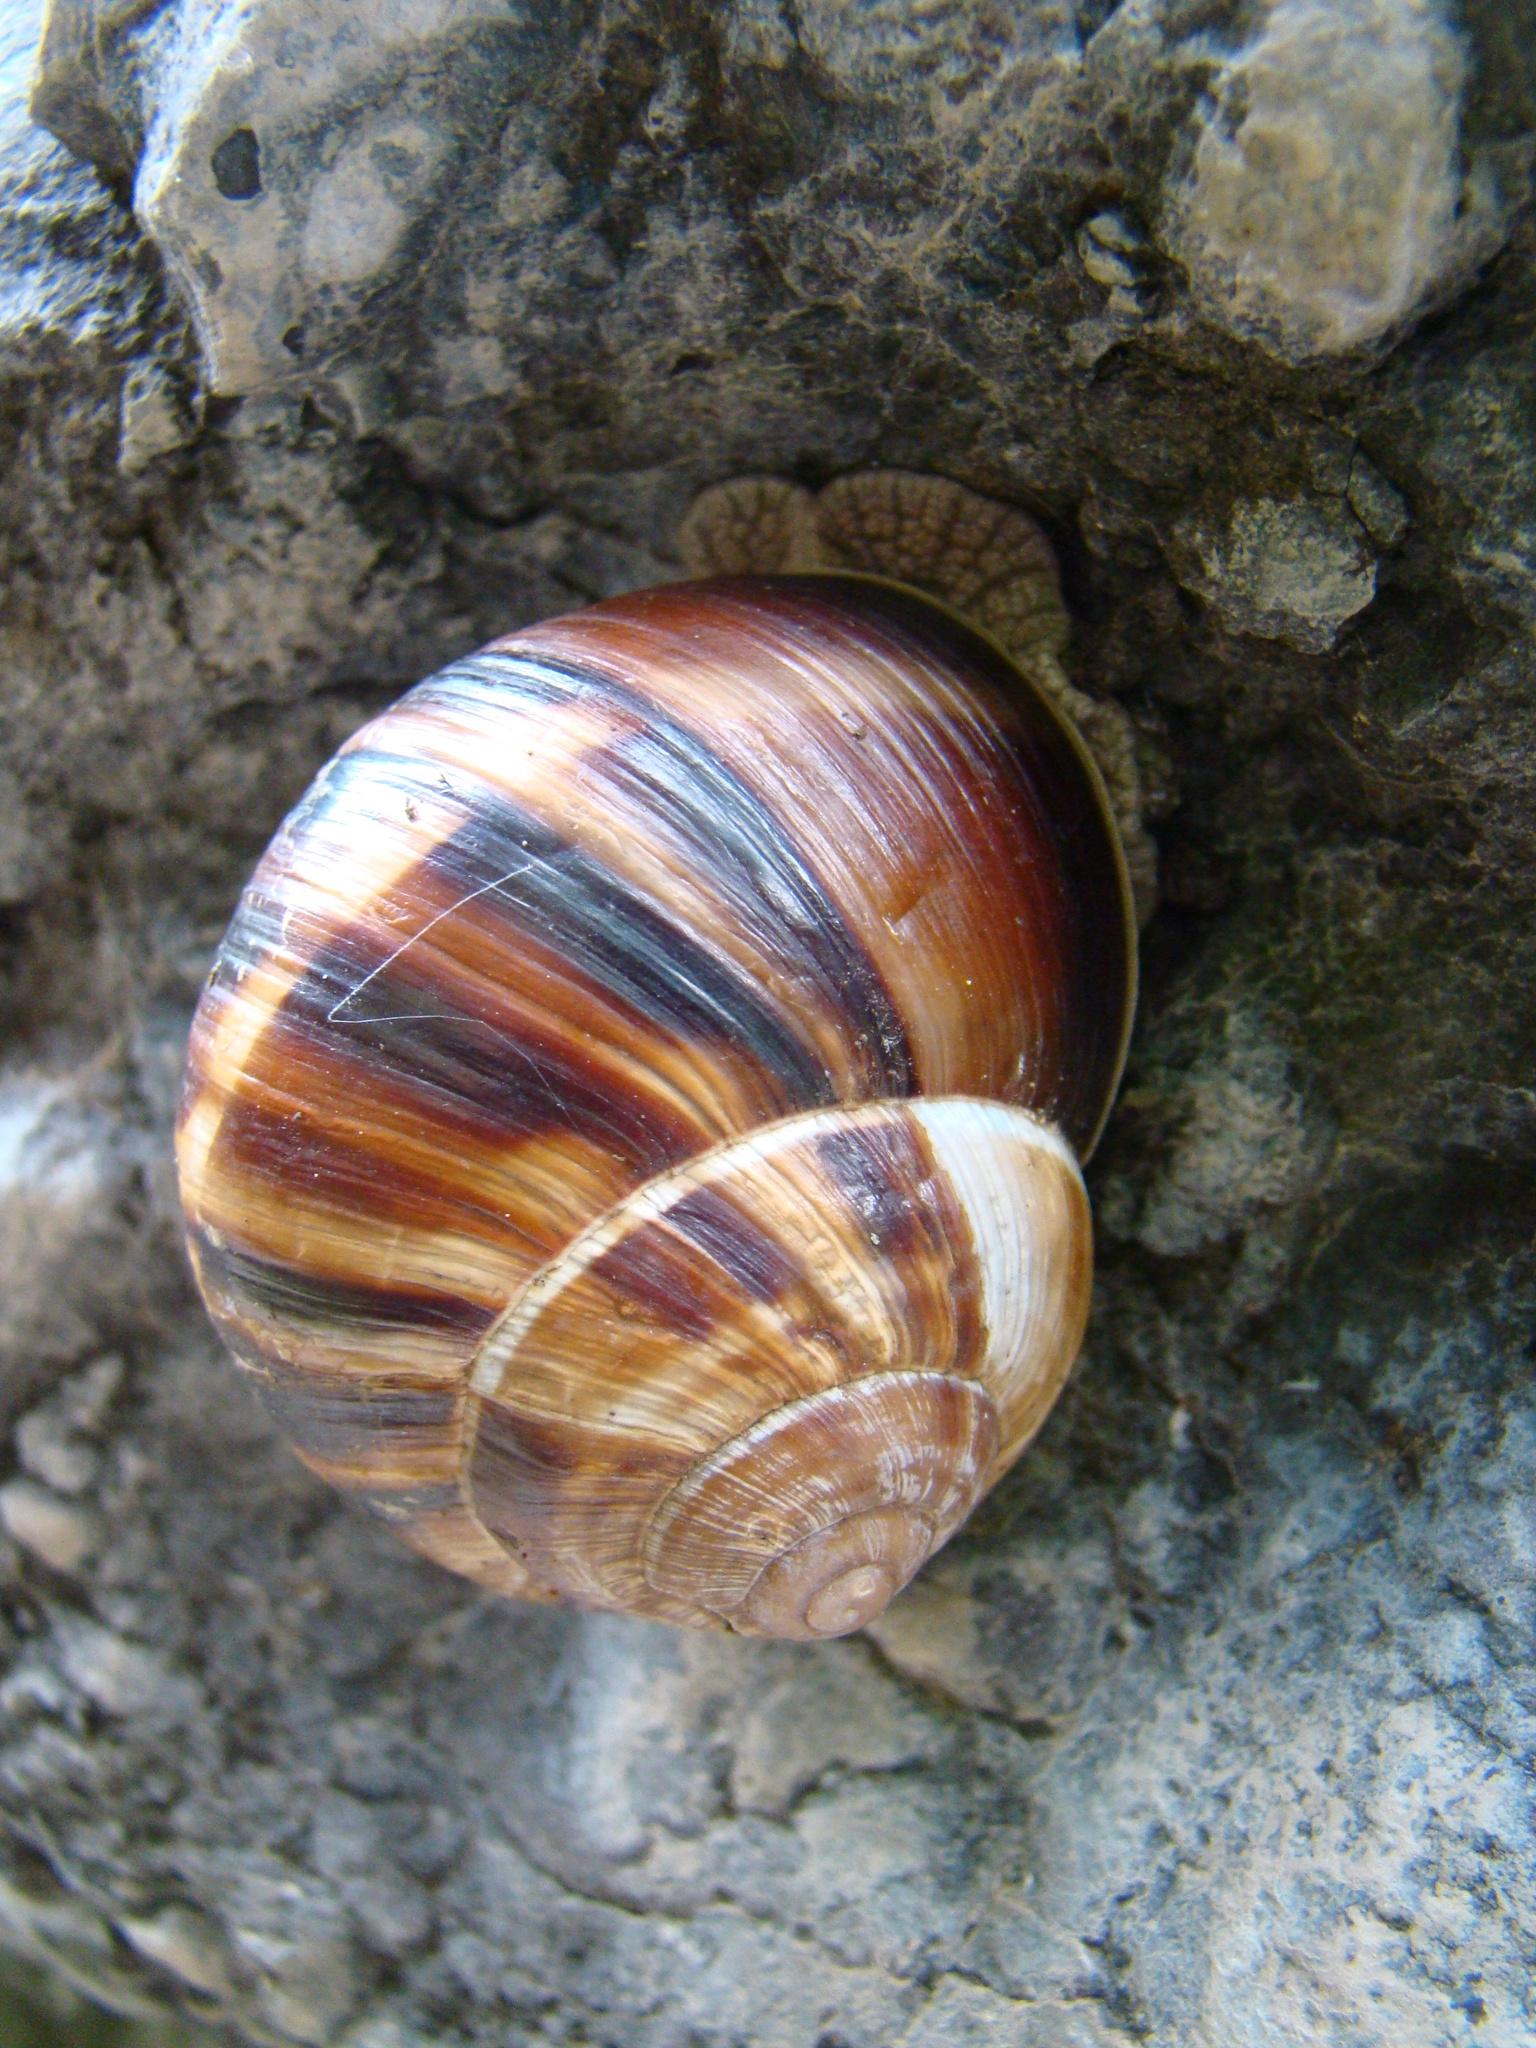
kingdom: Animalia
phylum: Mollusca
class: Gastropoda
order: Stylommatophora
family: Helicidae
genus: Helix
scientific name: Helix lucorum
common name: Turkish snail
